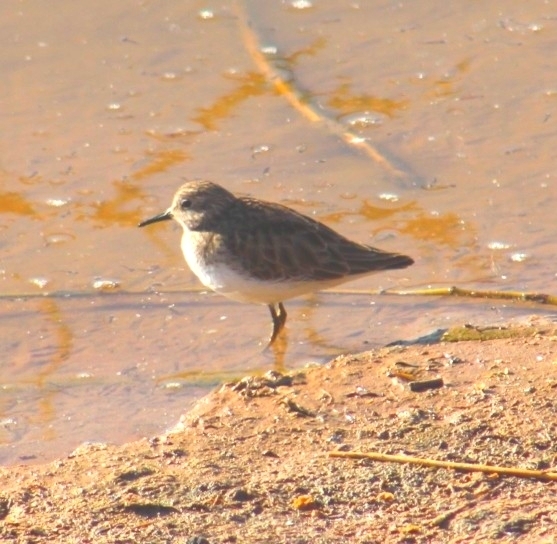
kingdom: Animalia
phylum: Chordata
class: Aves
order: Charadriiformes
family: Scolopacidae
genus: Calidris
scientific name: Calidris minutilla
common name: Least sandpiper
